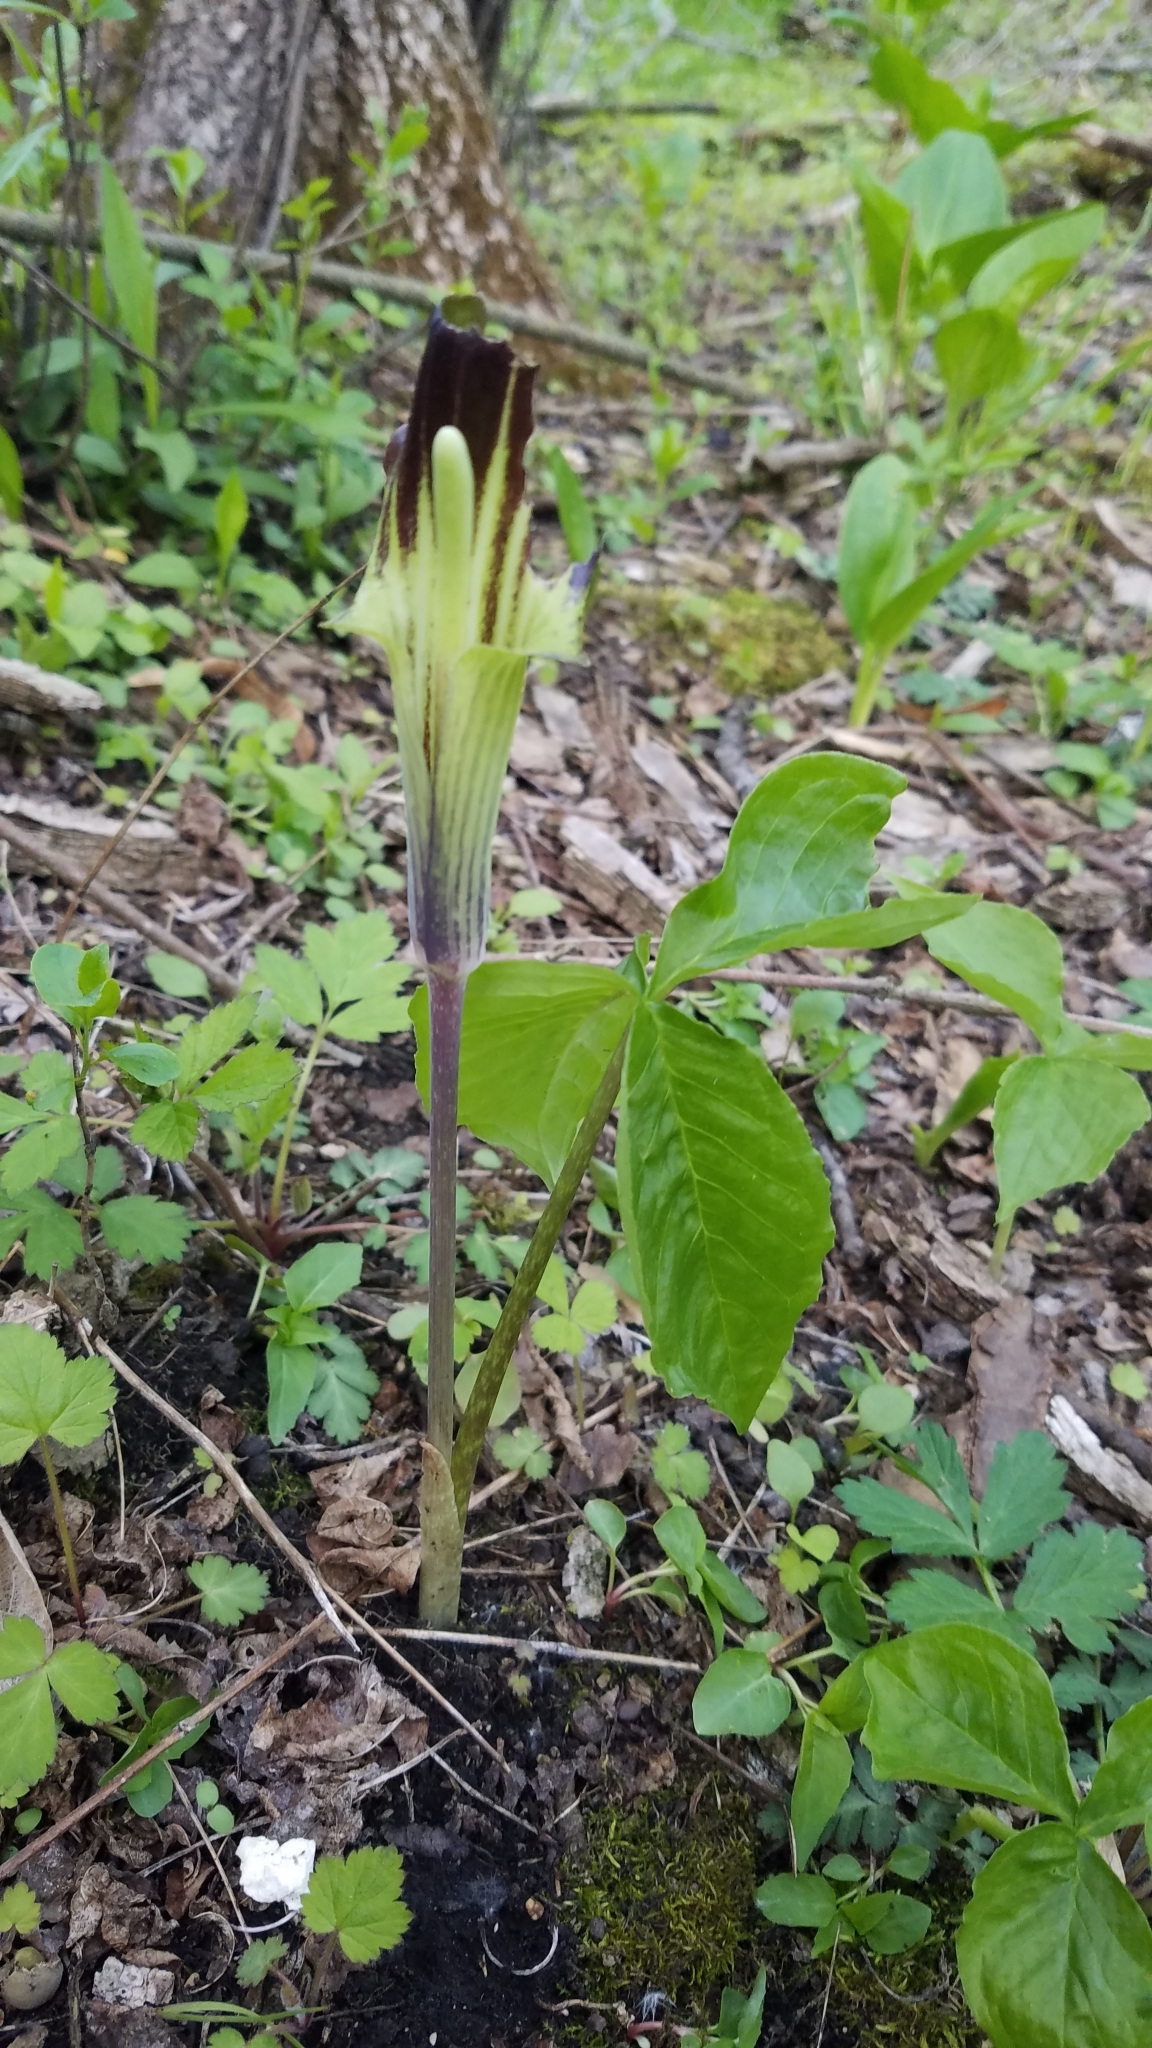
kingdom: Plantae
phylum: Tracheophyta
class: Liliopsida
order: Alismatales
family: Araceae
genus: Arisaema
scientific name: Arisaema triphyllum
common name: Jack-in-the-pulpit
